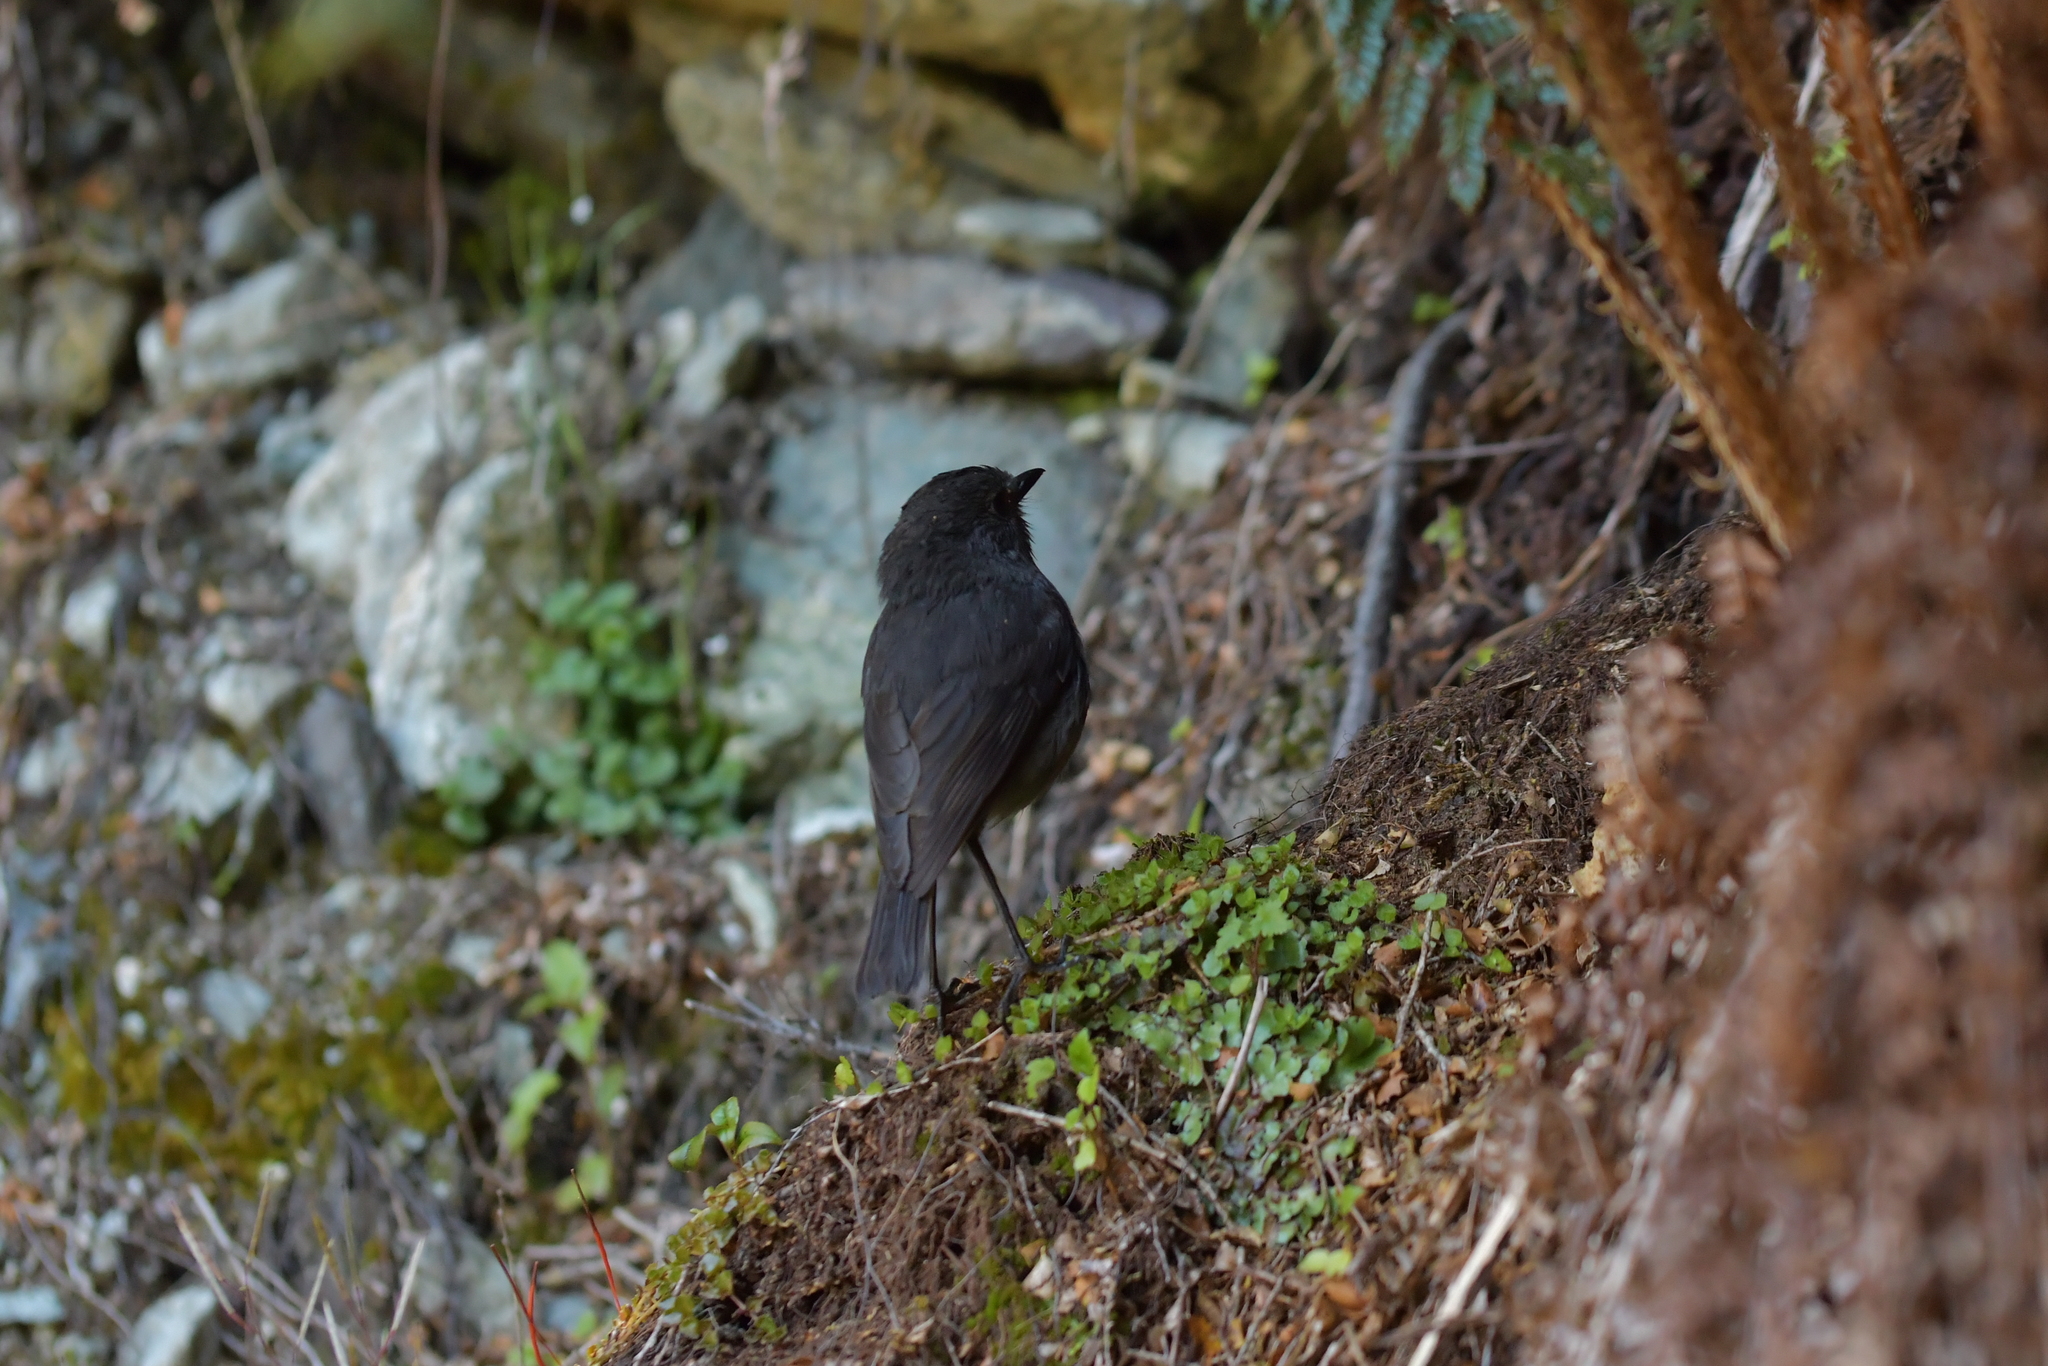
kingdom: Animalia
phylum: Chordata
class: Aves
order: Passeriformes
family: Petroicidae
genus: Petroica
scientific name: Petroica australis
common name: New zealand robin
